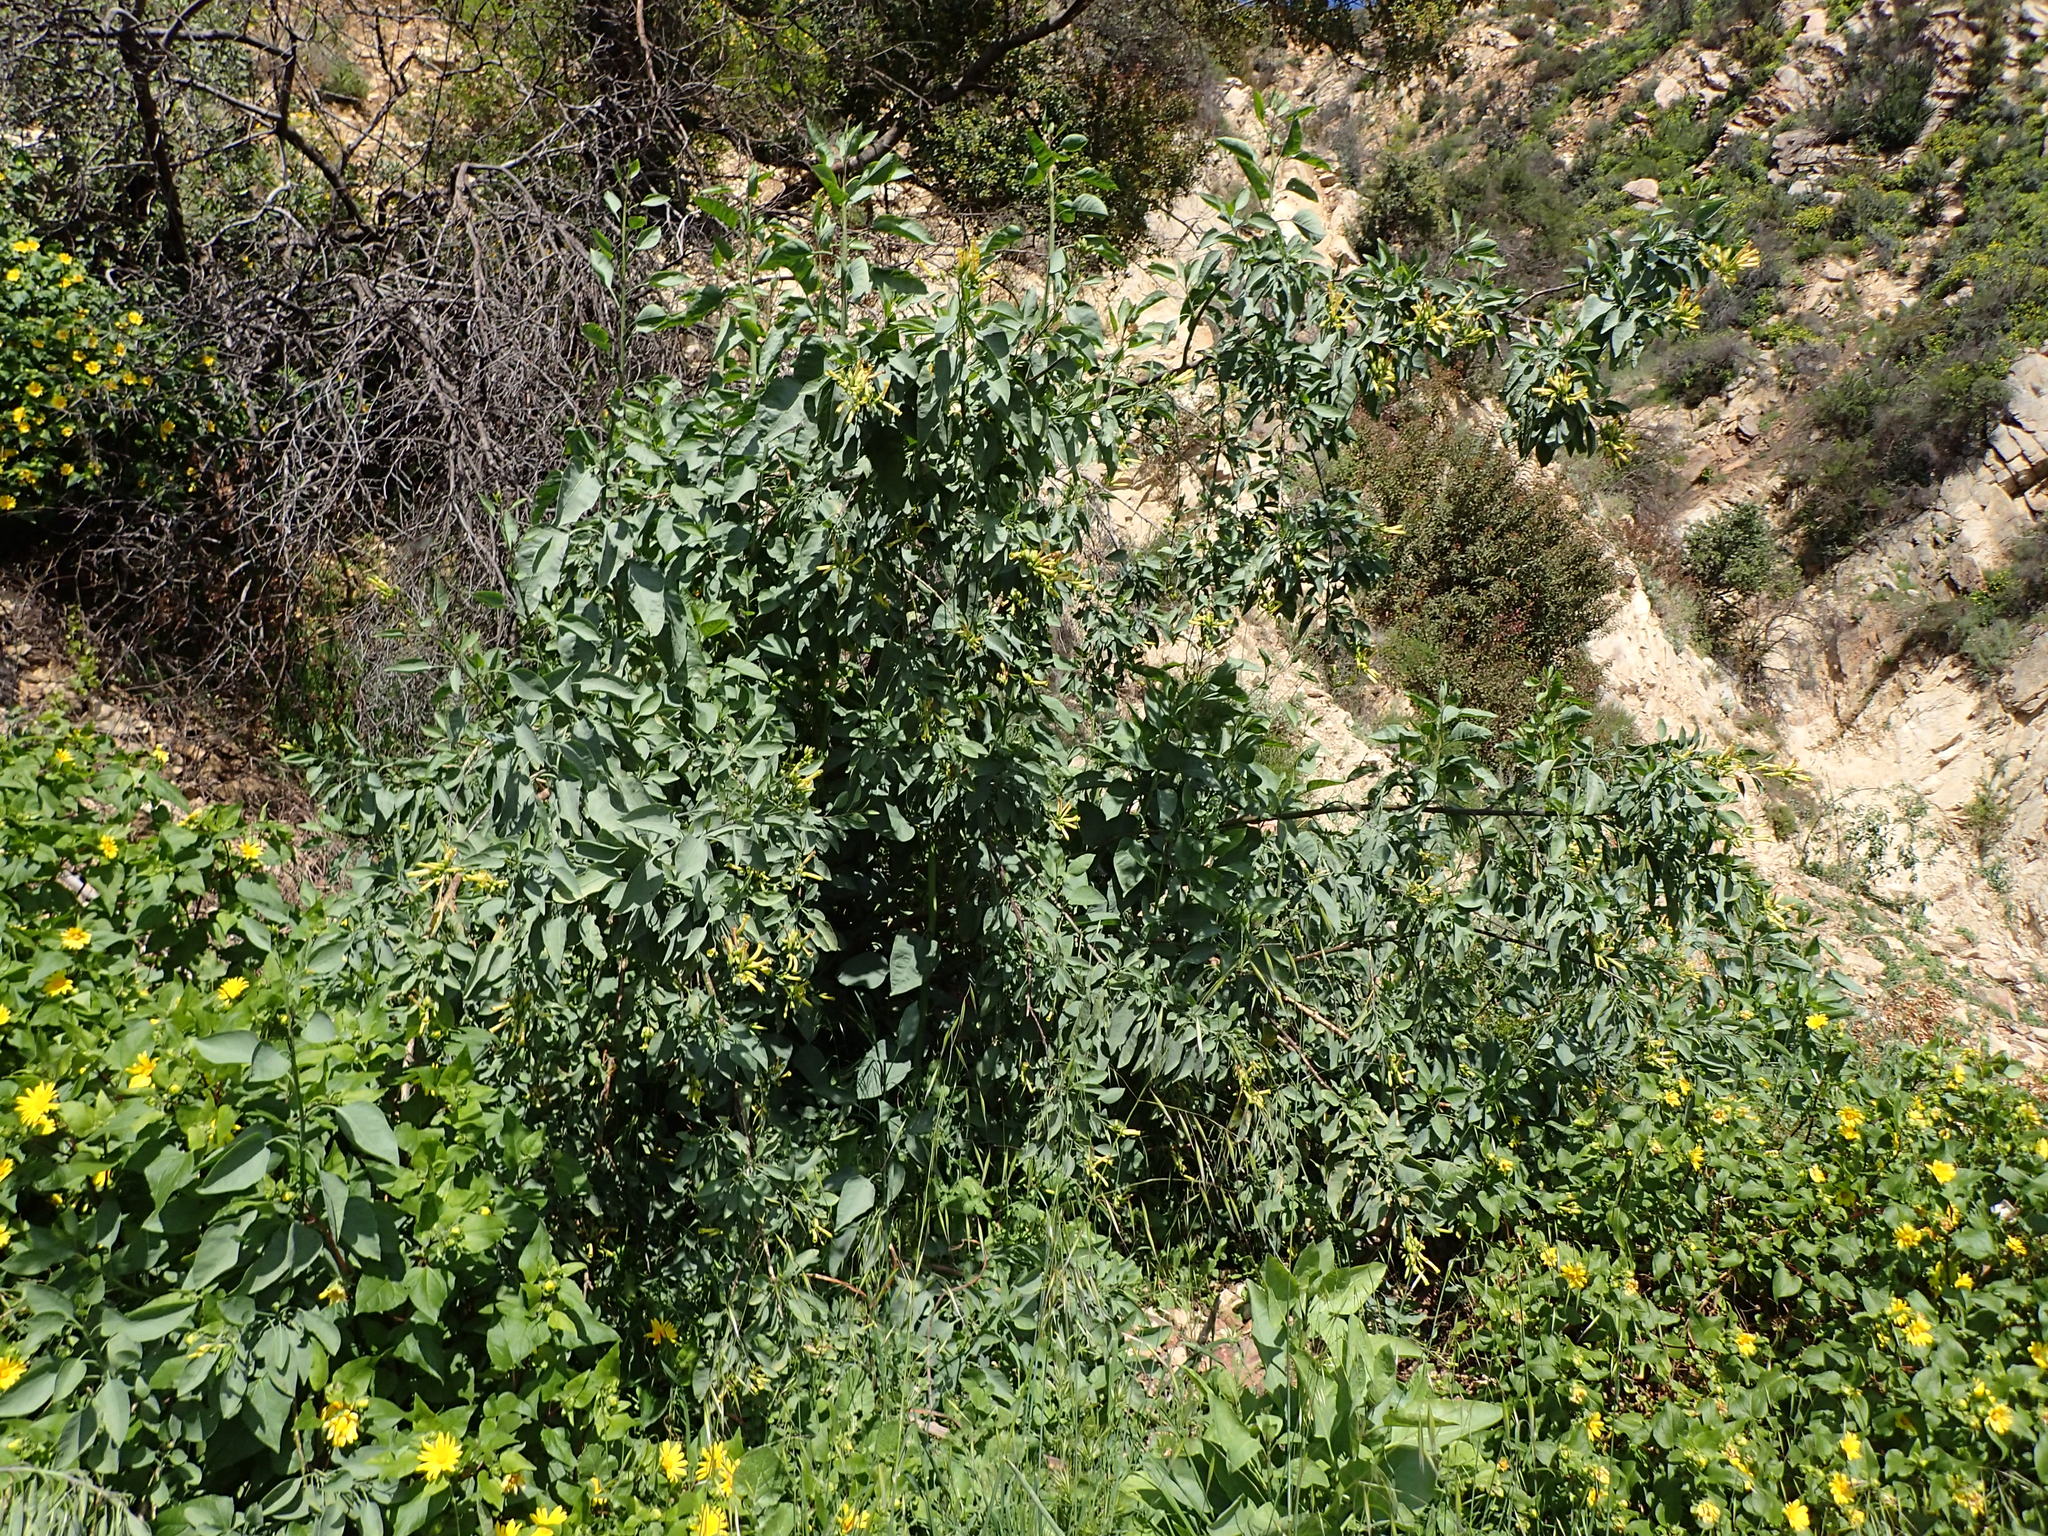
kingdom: Plantae
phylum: Tracheophyta
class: Magnoliopsida
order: Solanales
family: Solanaceae
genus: Nicotiana
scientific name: Nicotiana glauca
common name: Tree tobacco
